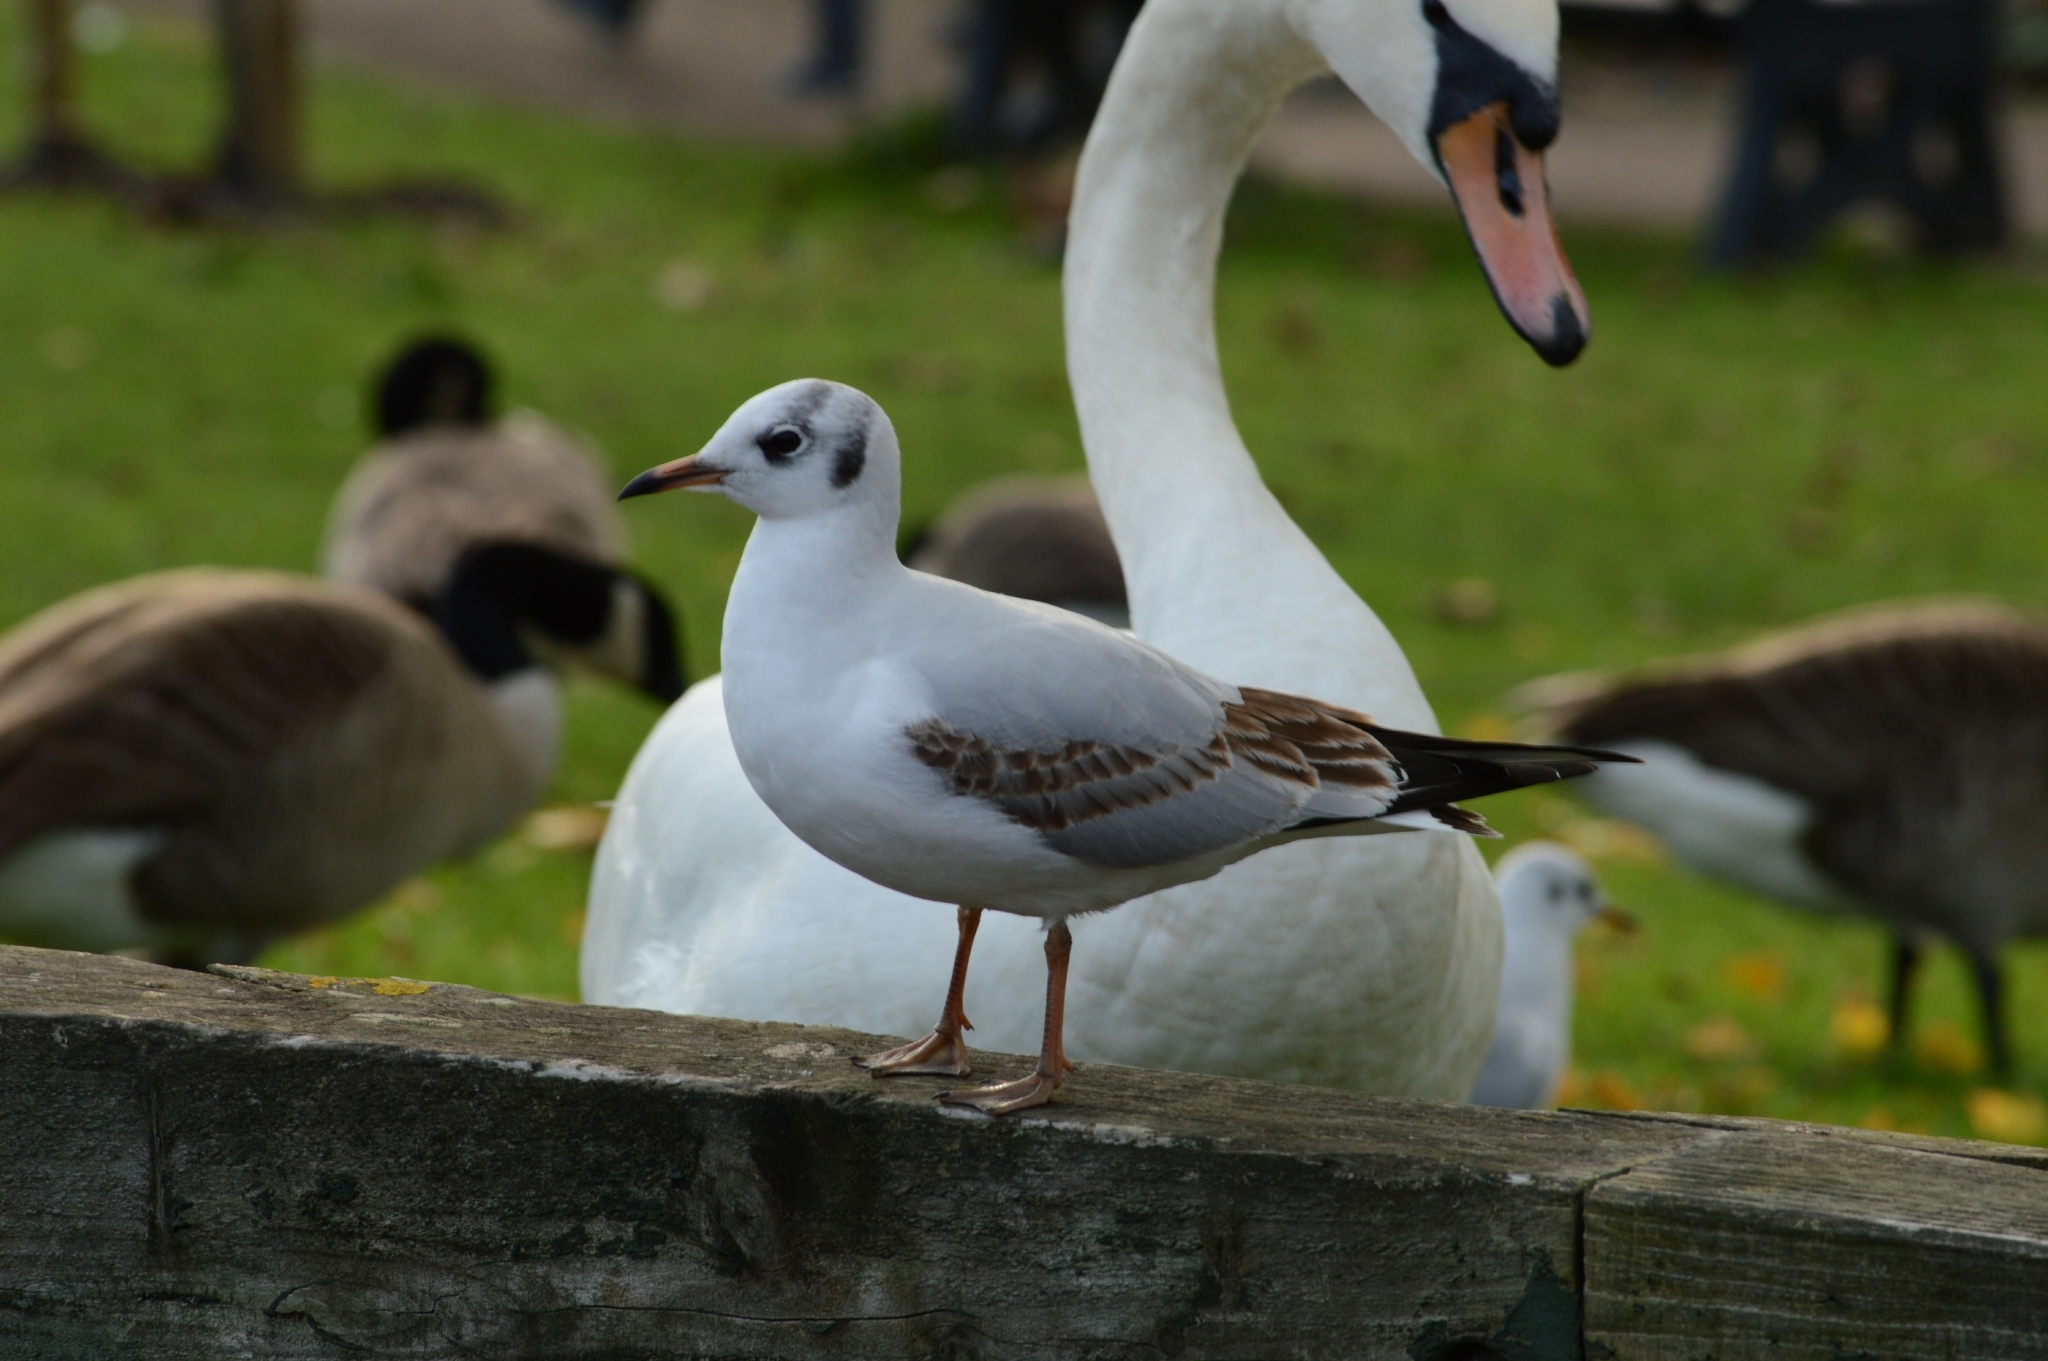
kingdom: Animalia
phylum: Chordata
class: Aves
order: Charadriiformes
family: Laridae
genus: Chroicocephalus
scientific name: Chroicocephalus ridibundus
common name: Black-headed gull
